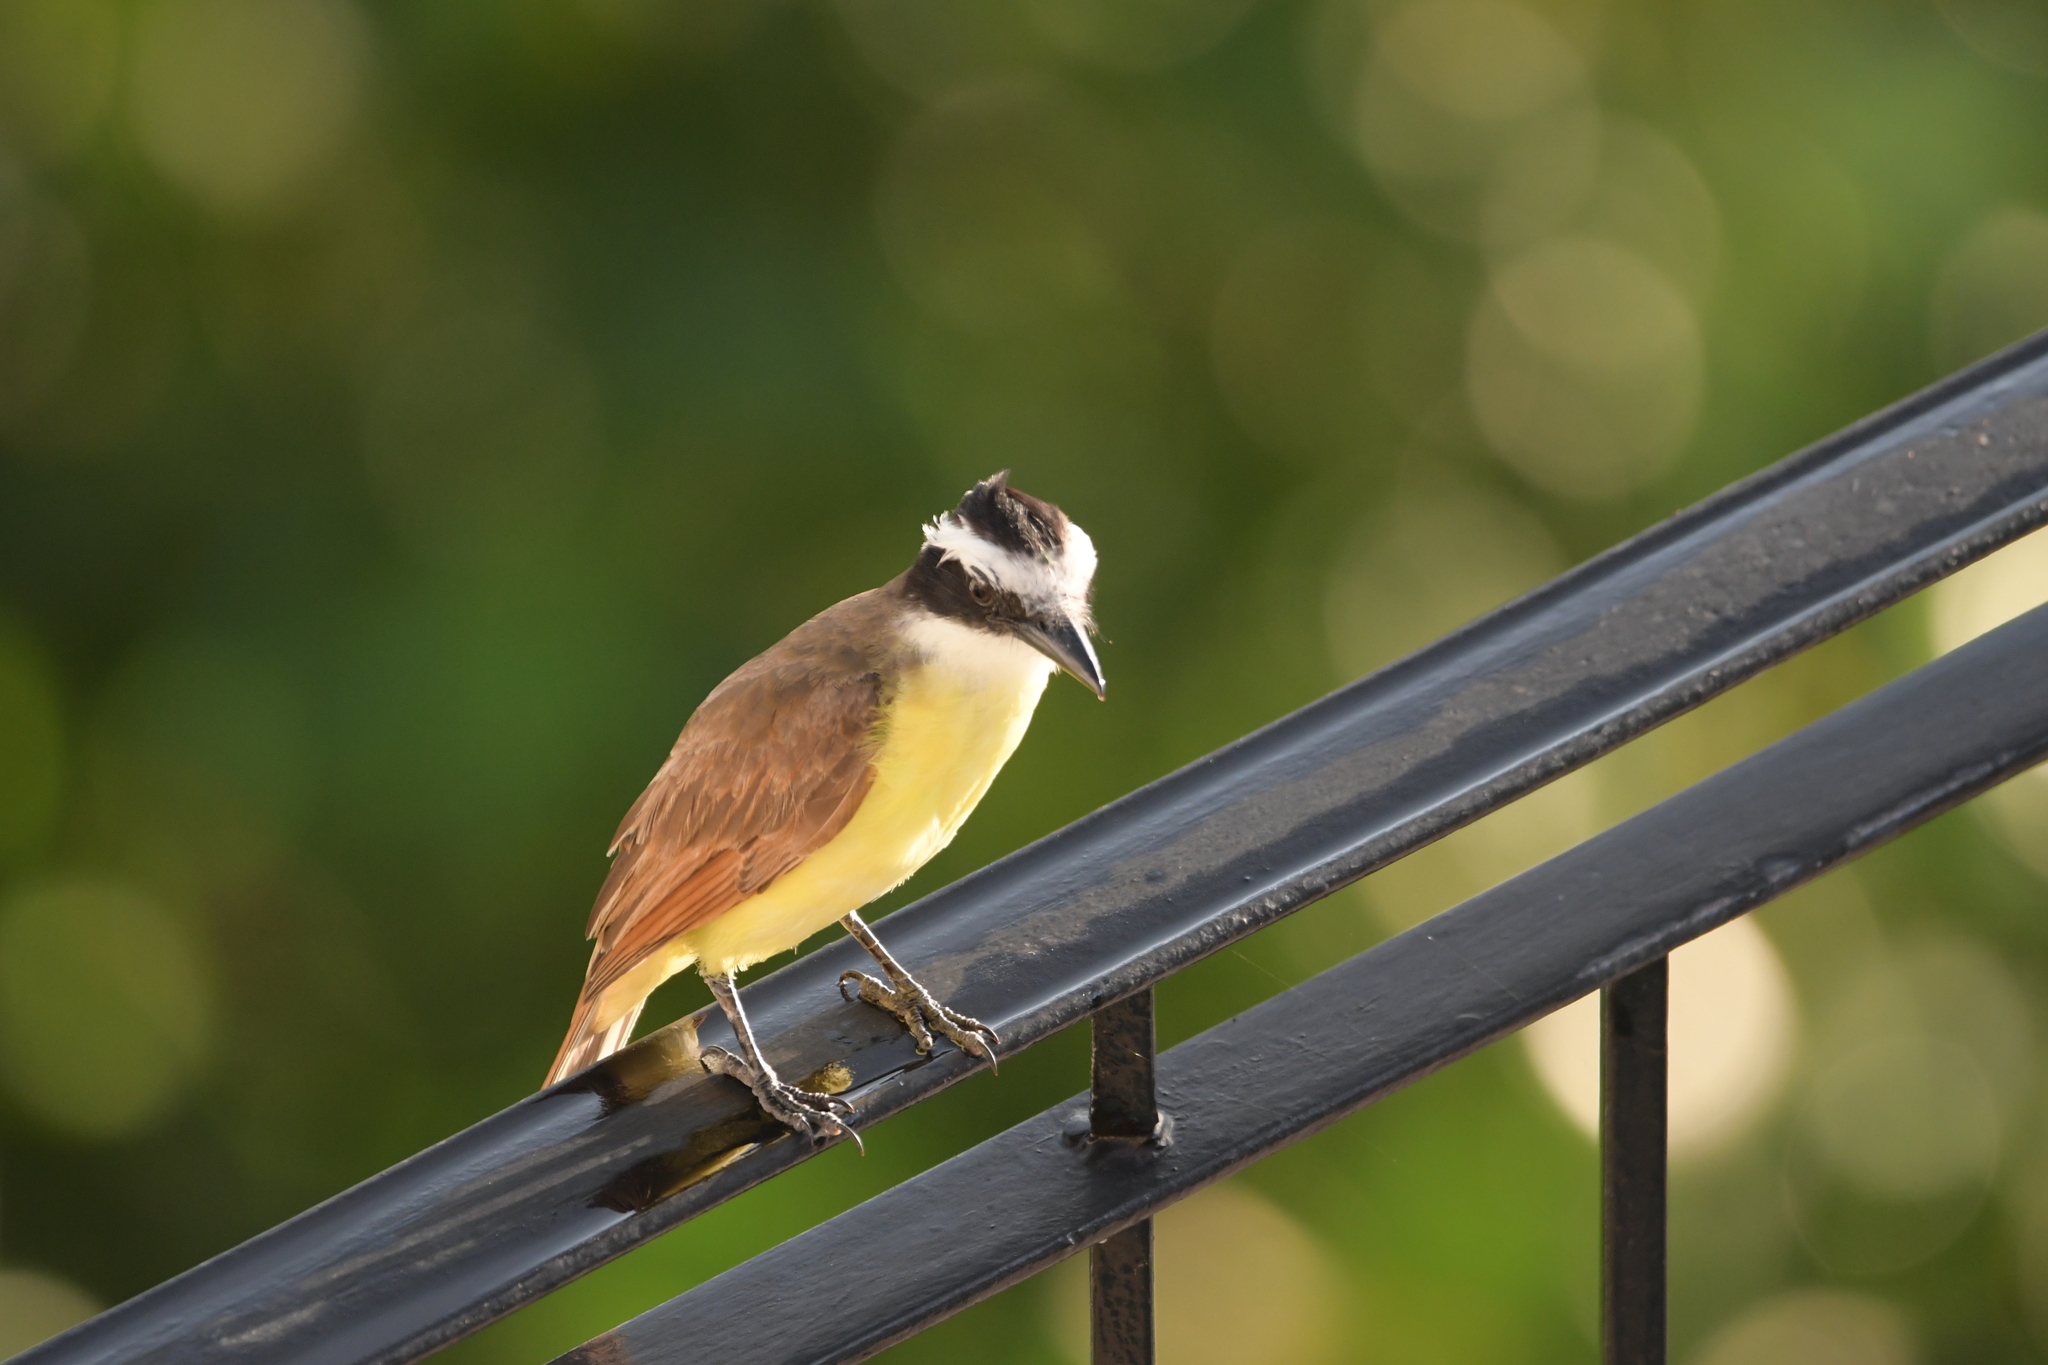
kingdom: Animalia
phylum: Chordata
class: Aves
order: Passeriformes
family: Tyrannidae
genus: Pitangus
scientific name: Pitangus sulphuratus
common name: Great kiskadee
